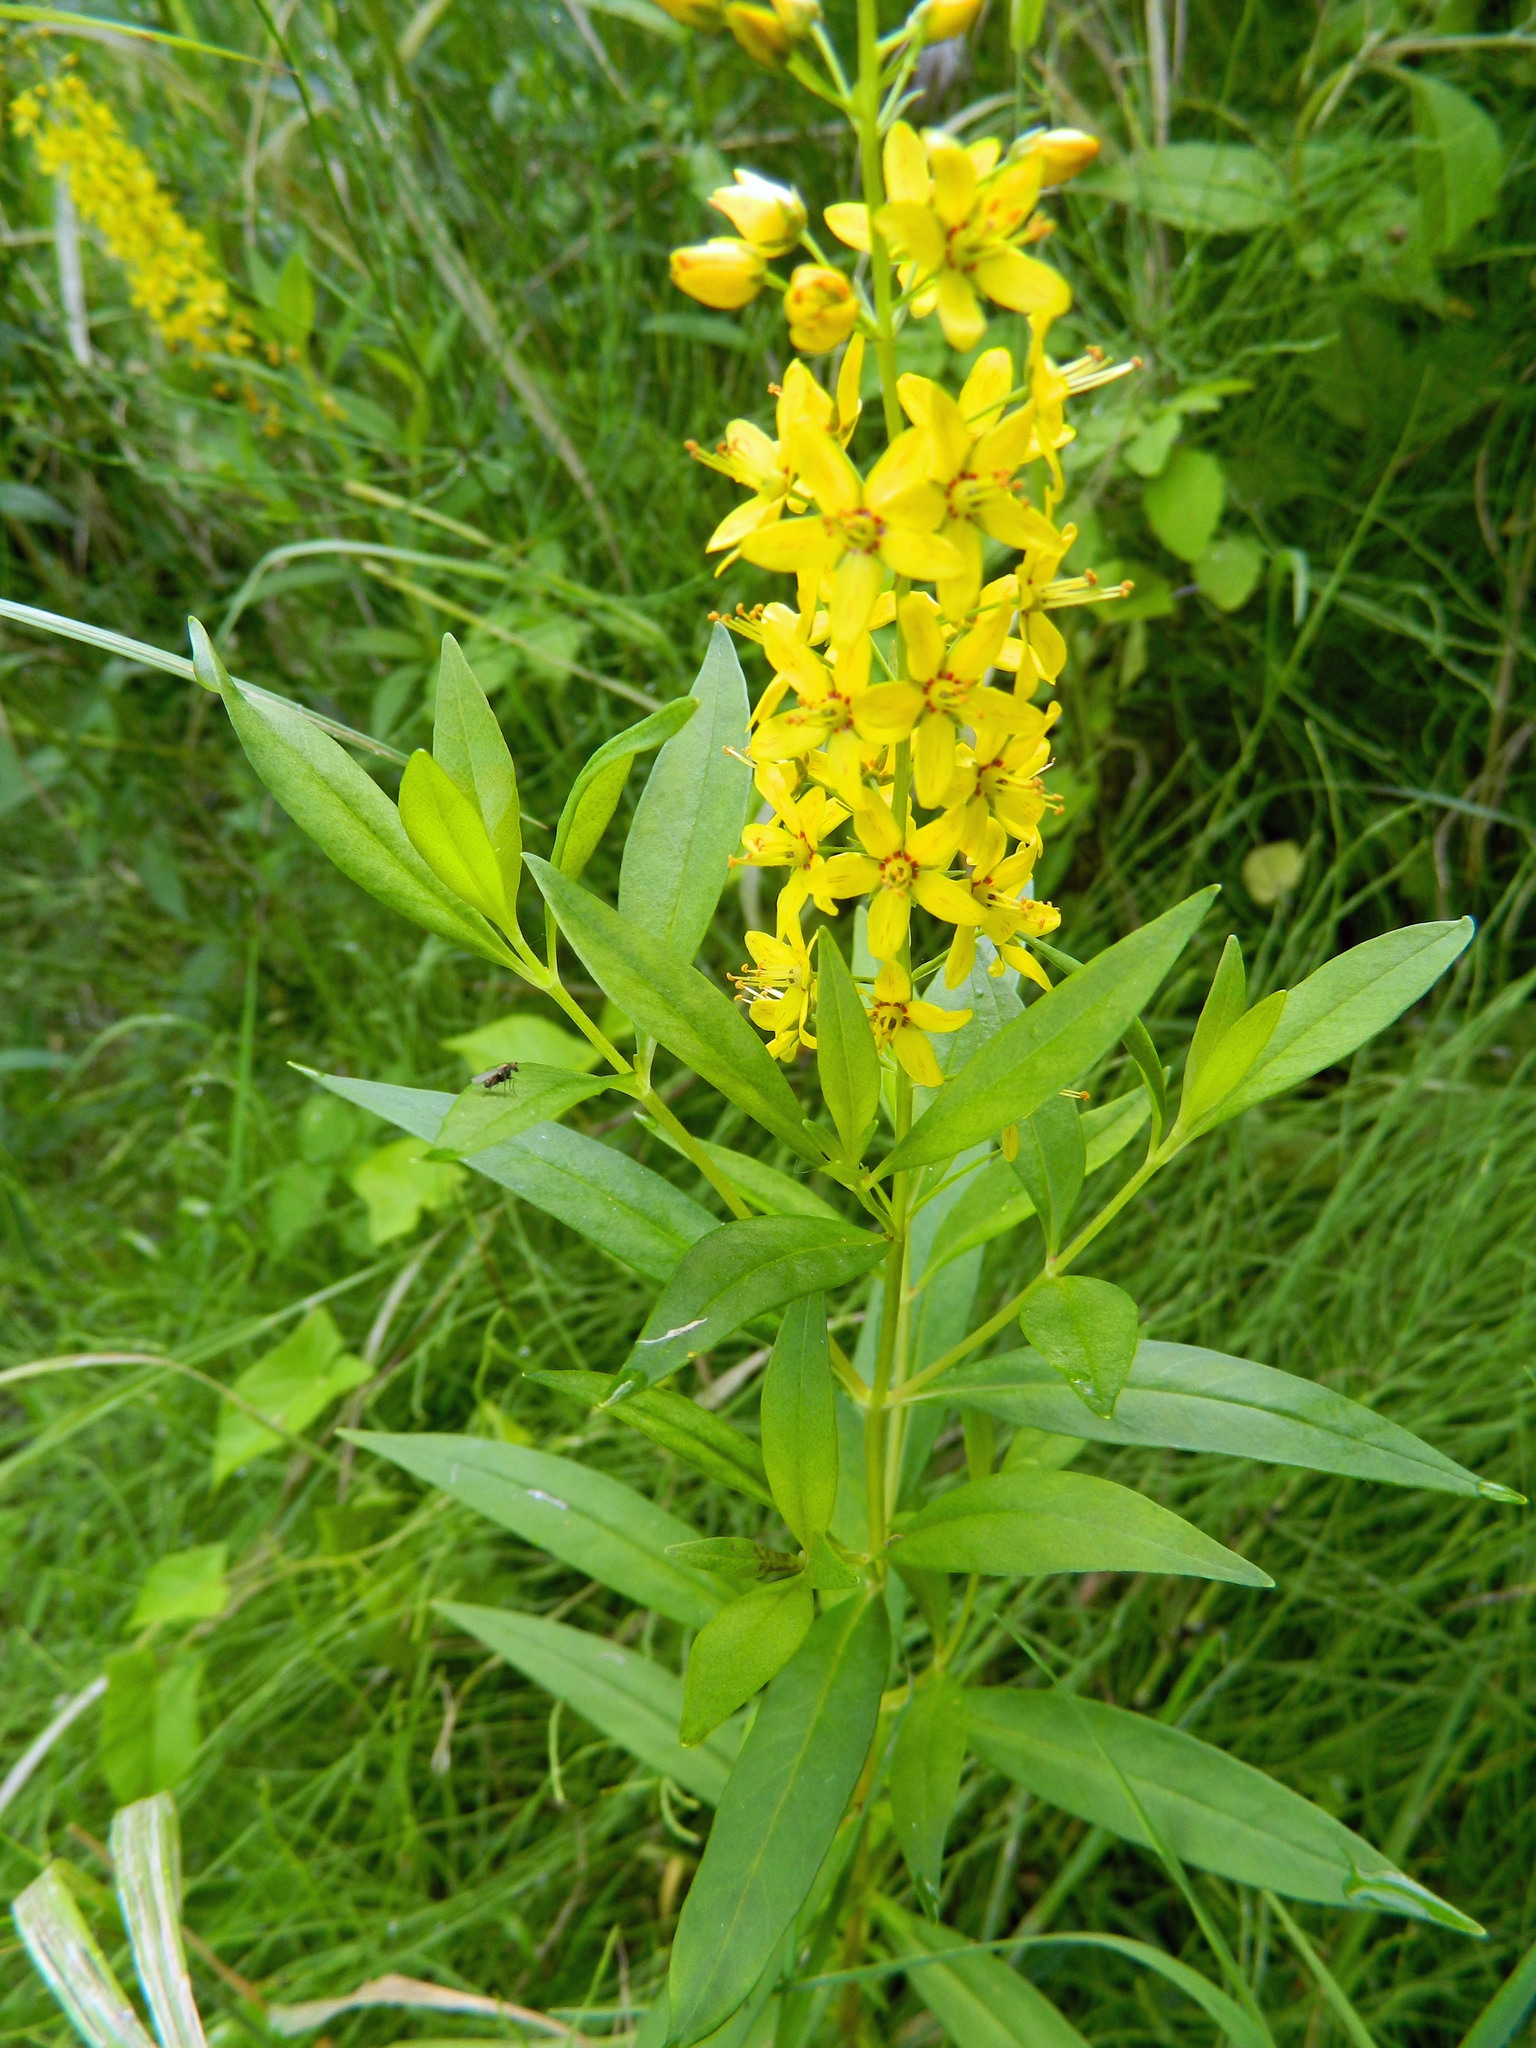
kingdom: Plantae
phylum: Tracheophyta
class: Magnoliopsida
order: Ericales
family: Primulaceae
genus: Lysimachia
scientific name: Lysimachia terrestris
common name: Lake loosestrife
